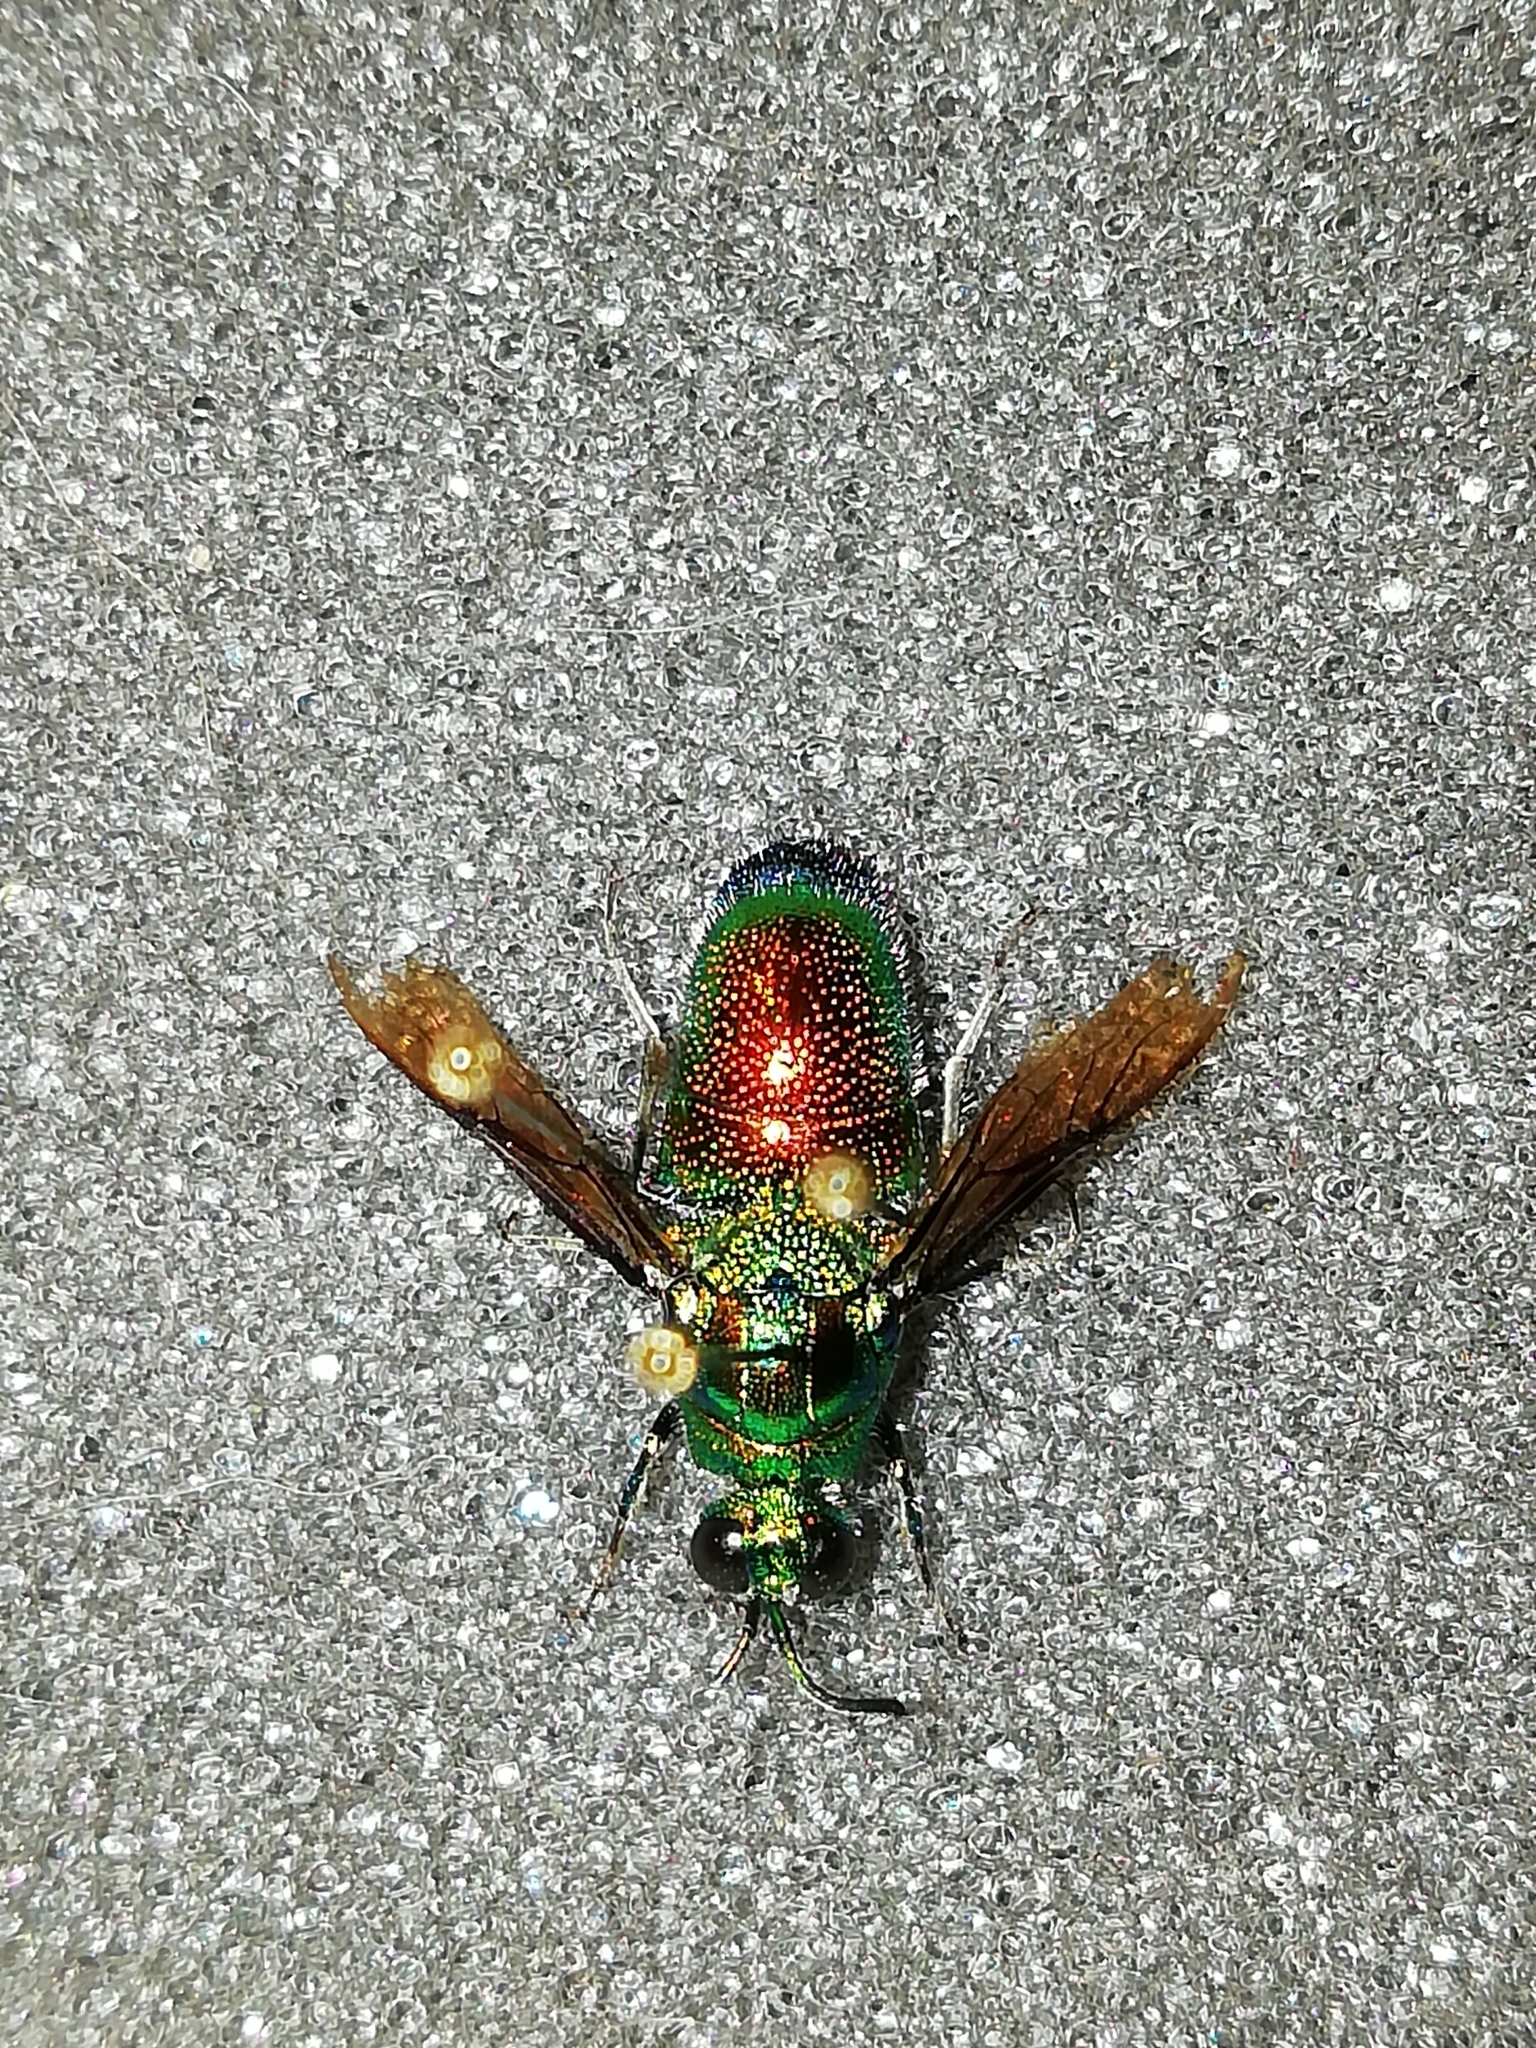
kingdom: Animalia
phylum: Arthropoda
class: Insecta
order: Hymenoptera
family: Chrysididae
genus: Stilbum
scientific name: Stilbum cyanurum
